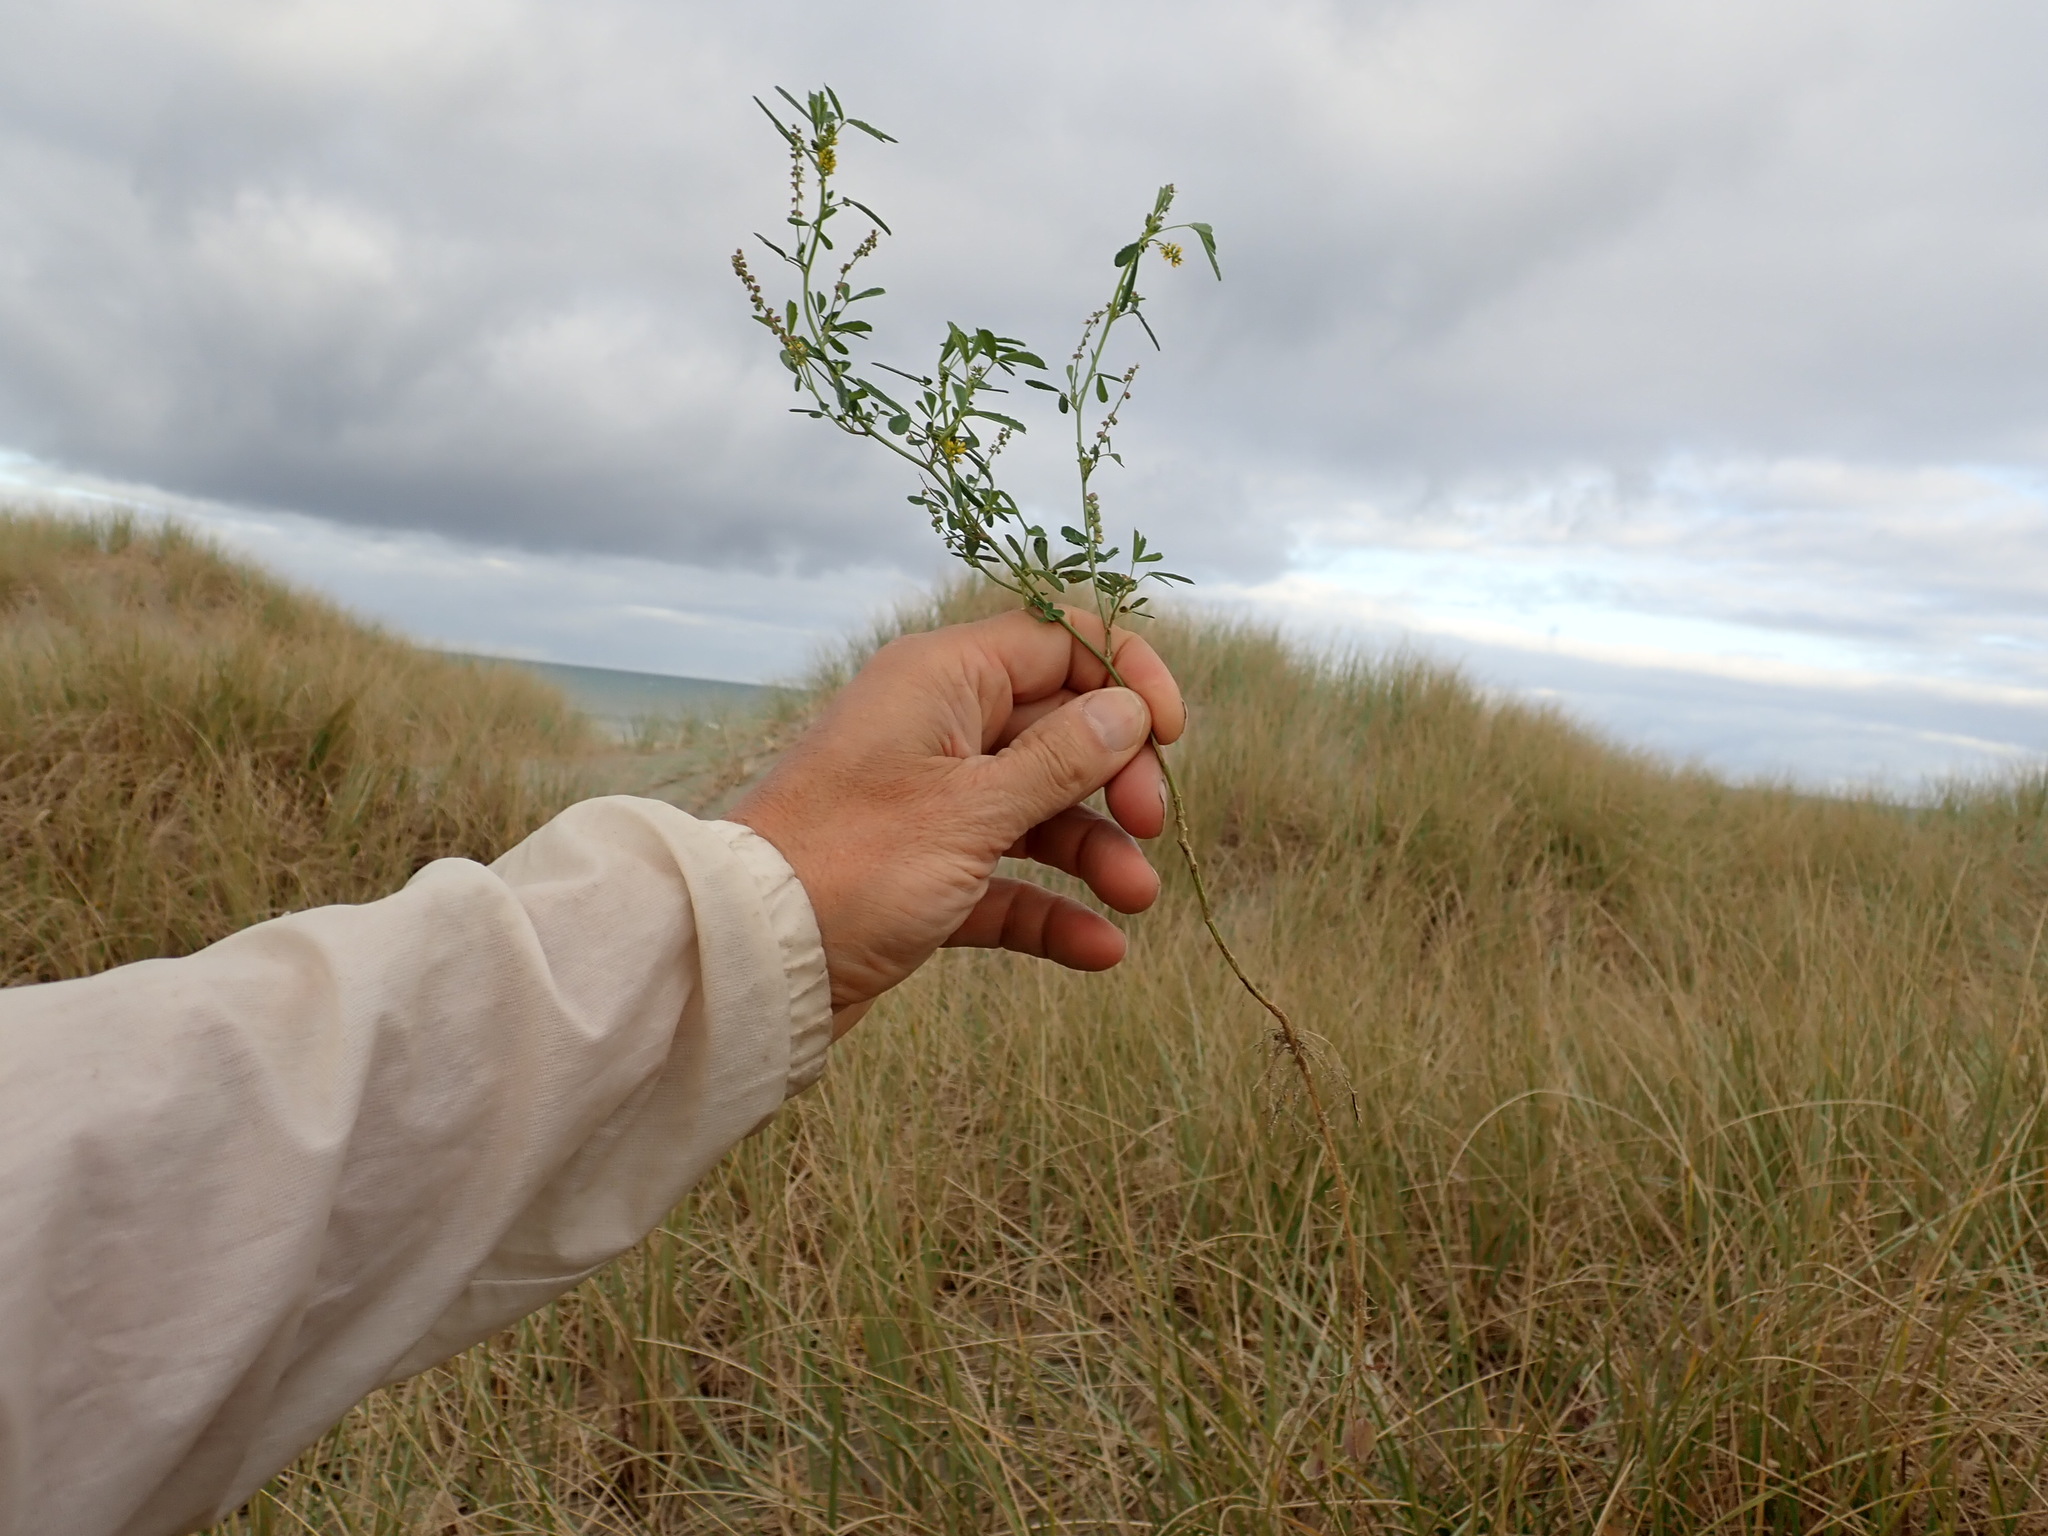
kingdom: Plantae
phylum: Tracheophyta
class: Magnoliopsida
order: Fabales
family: Fabaceae
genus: Melilotus
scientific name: Melilotus indicus
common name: Small melilot
